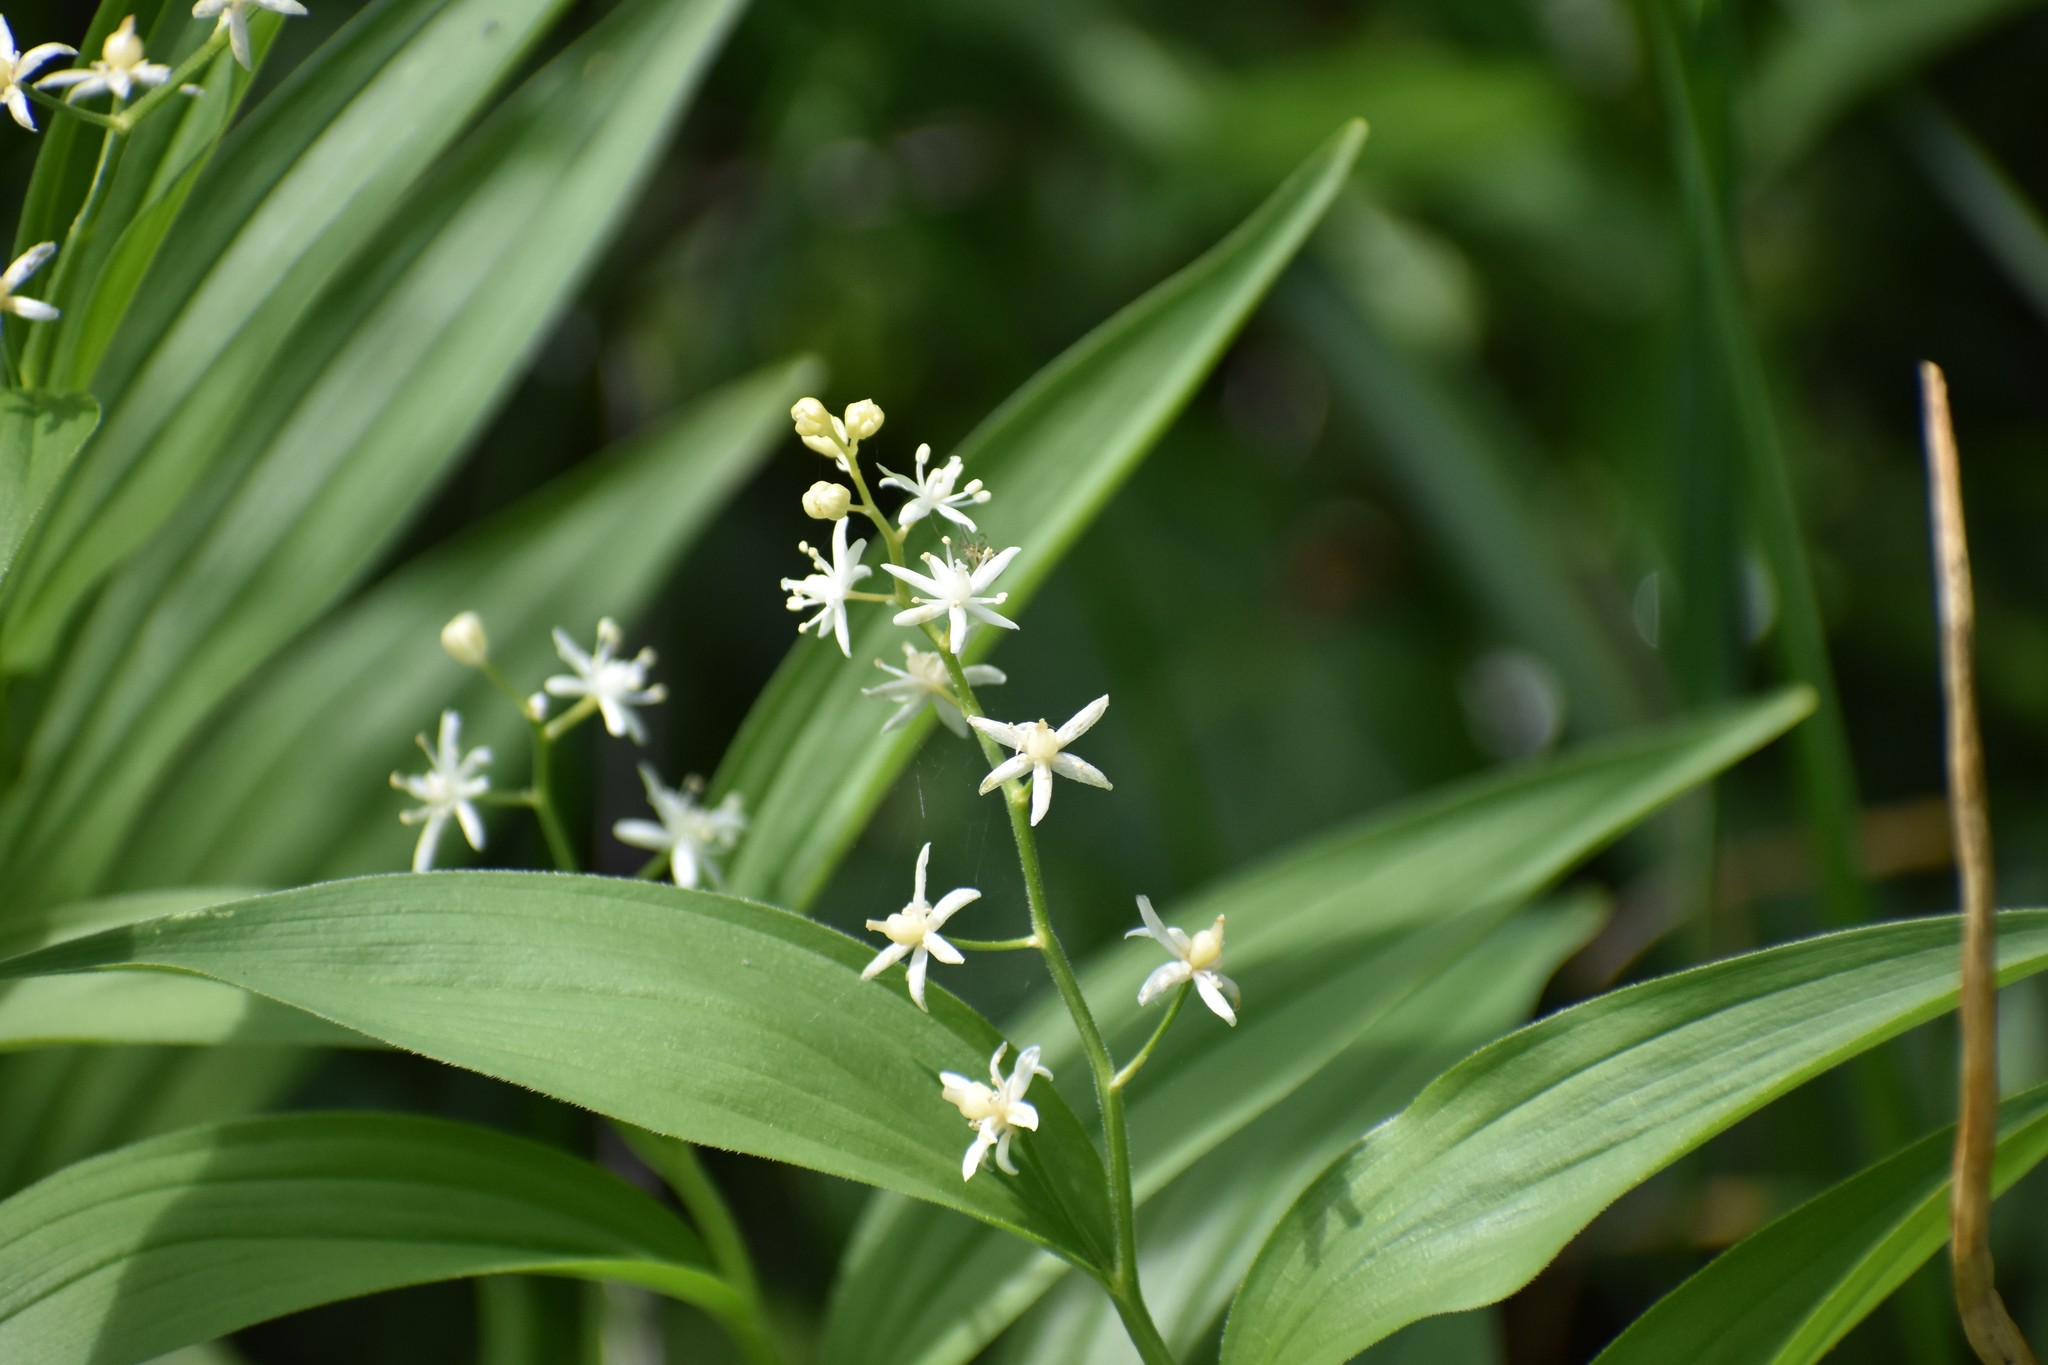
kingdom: Plantae
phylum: Tracheophyta
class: Liliopsida
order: Asparagales
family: Asparagaceae
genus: Maianthemum
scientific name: Maianthemum stellatum
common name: Little false solomon's seal
